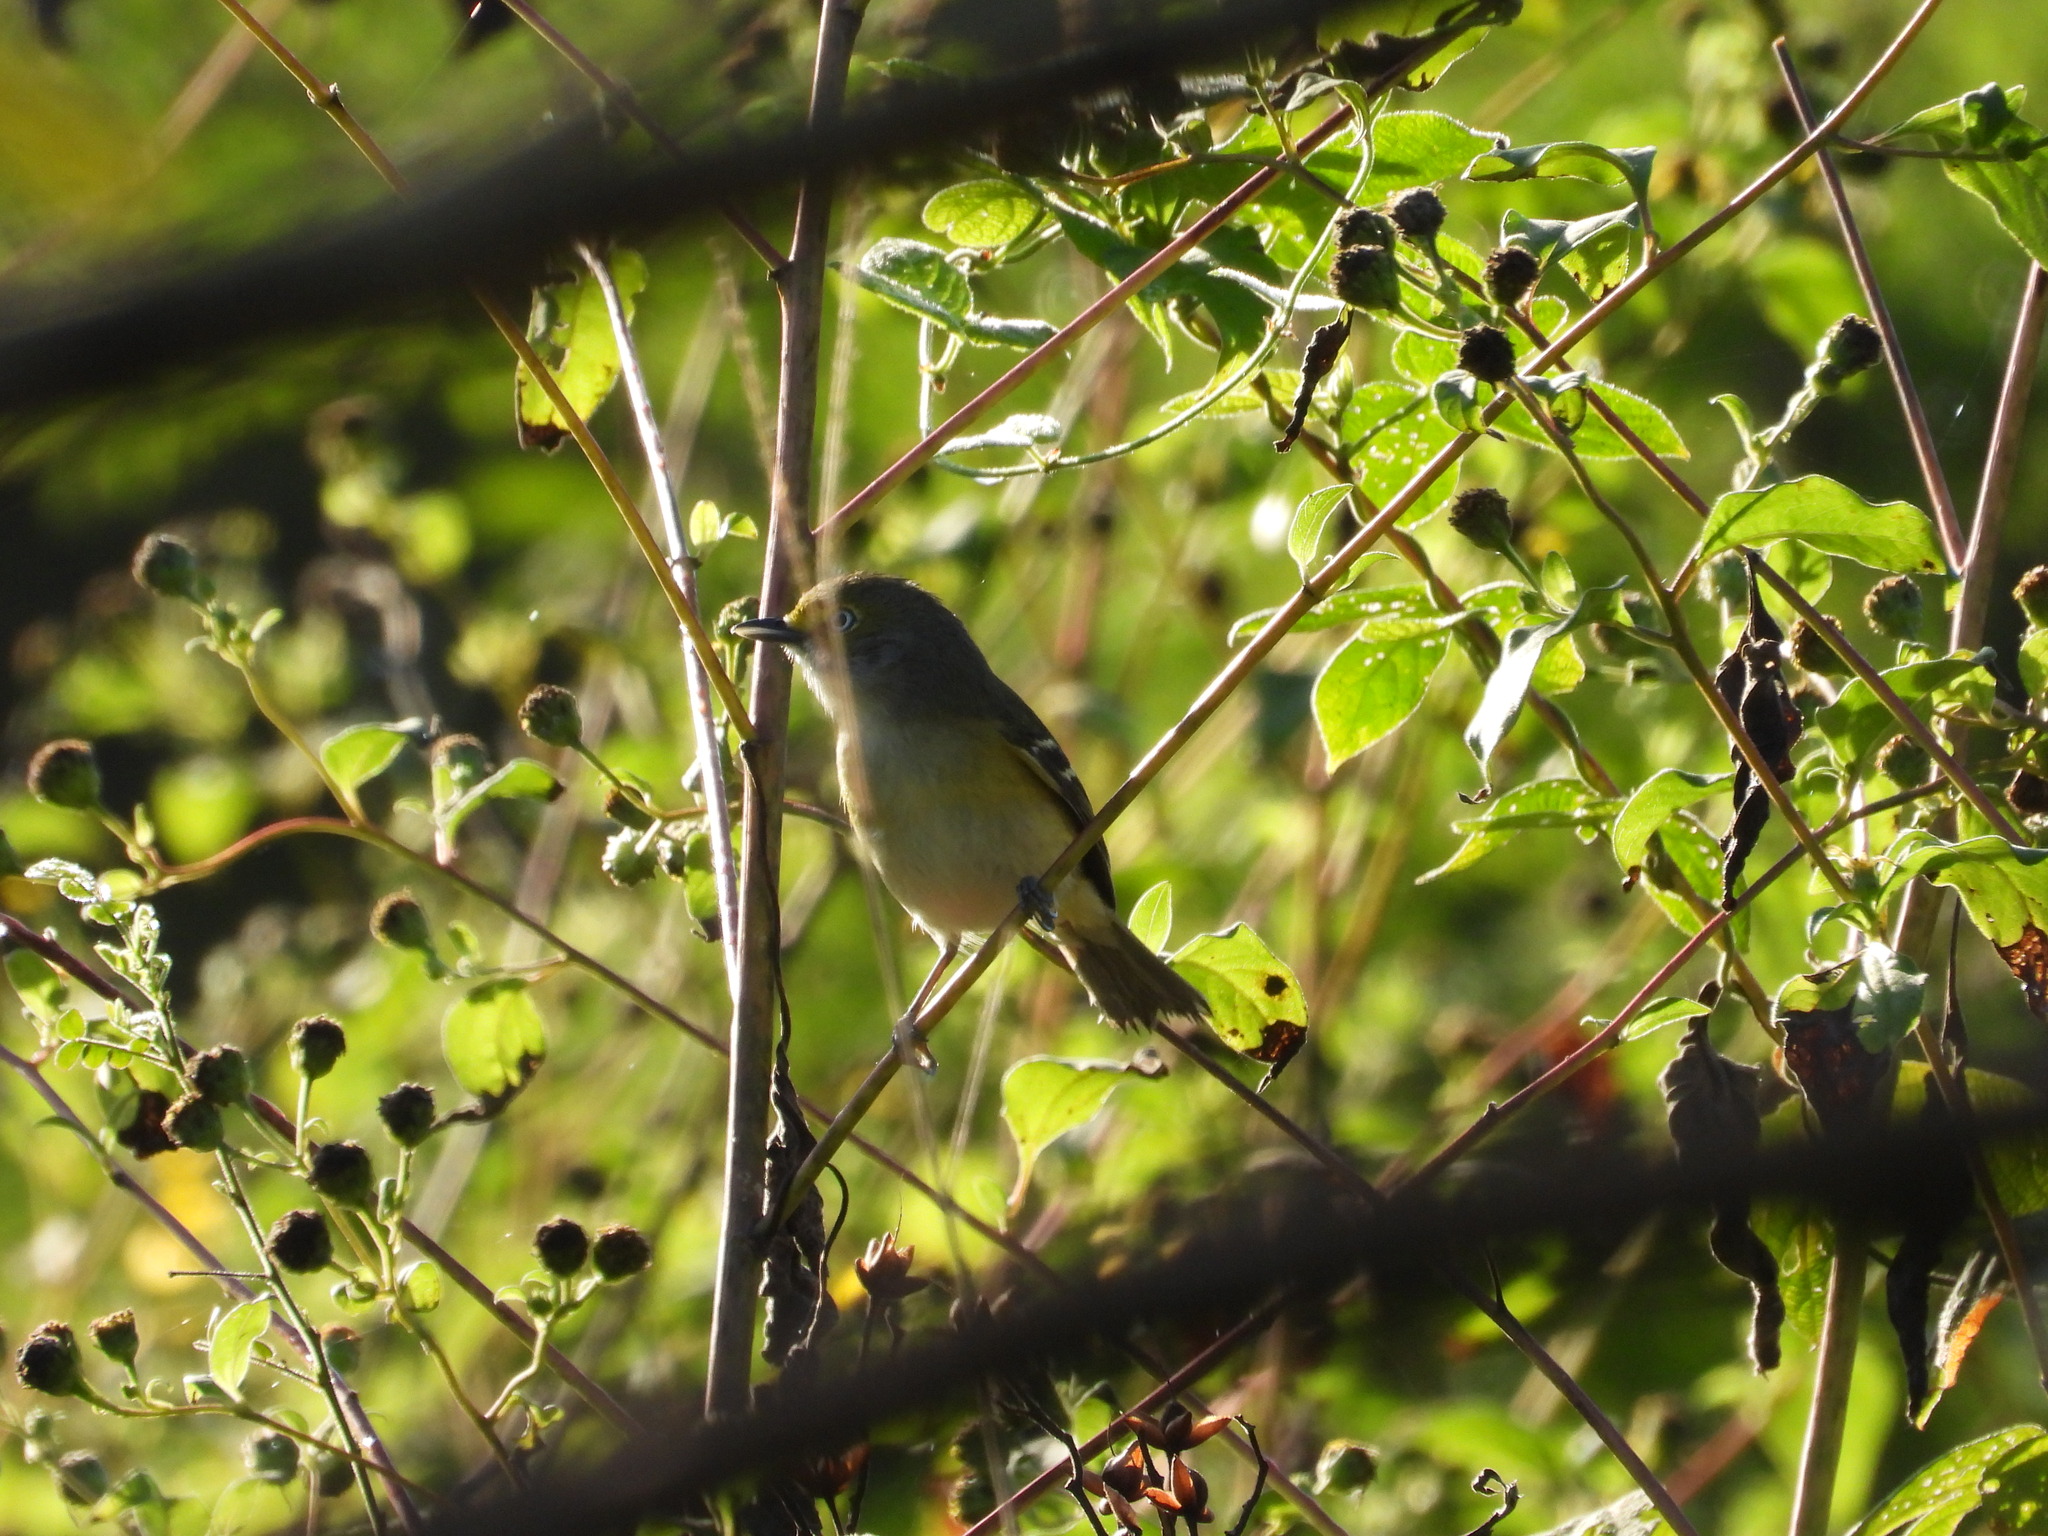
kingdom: Animalia
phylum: Chordata
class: Aves
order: Passeriformes
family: Vireonidae
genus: Vireo
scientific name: Vireo griseus
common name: White-eyed vireo
